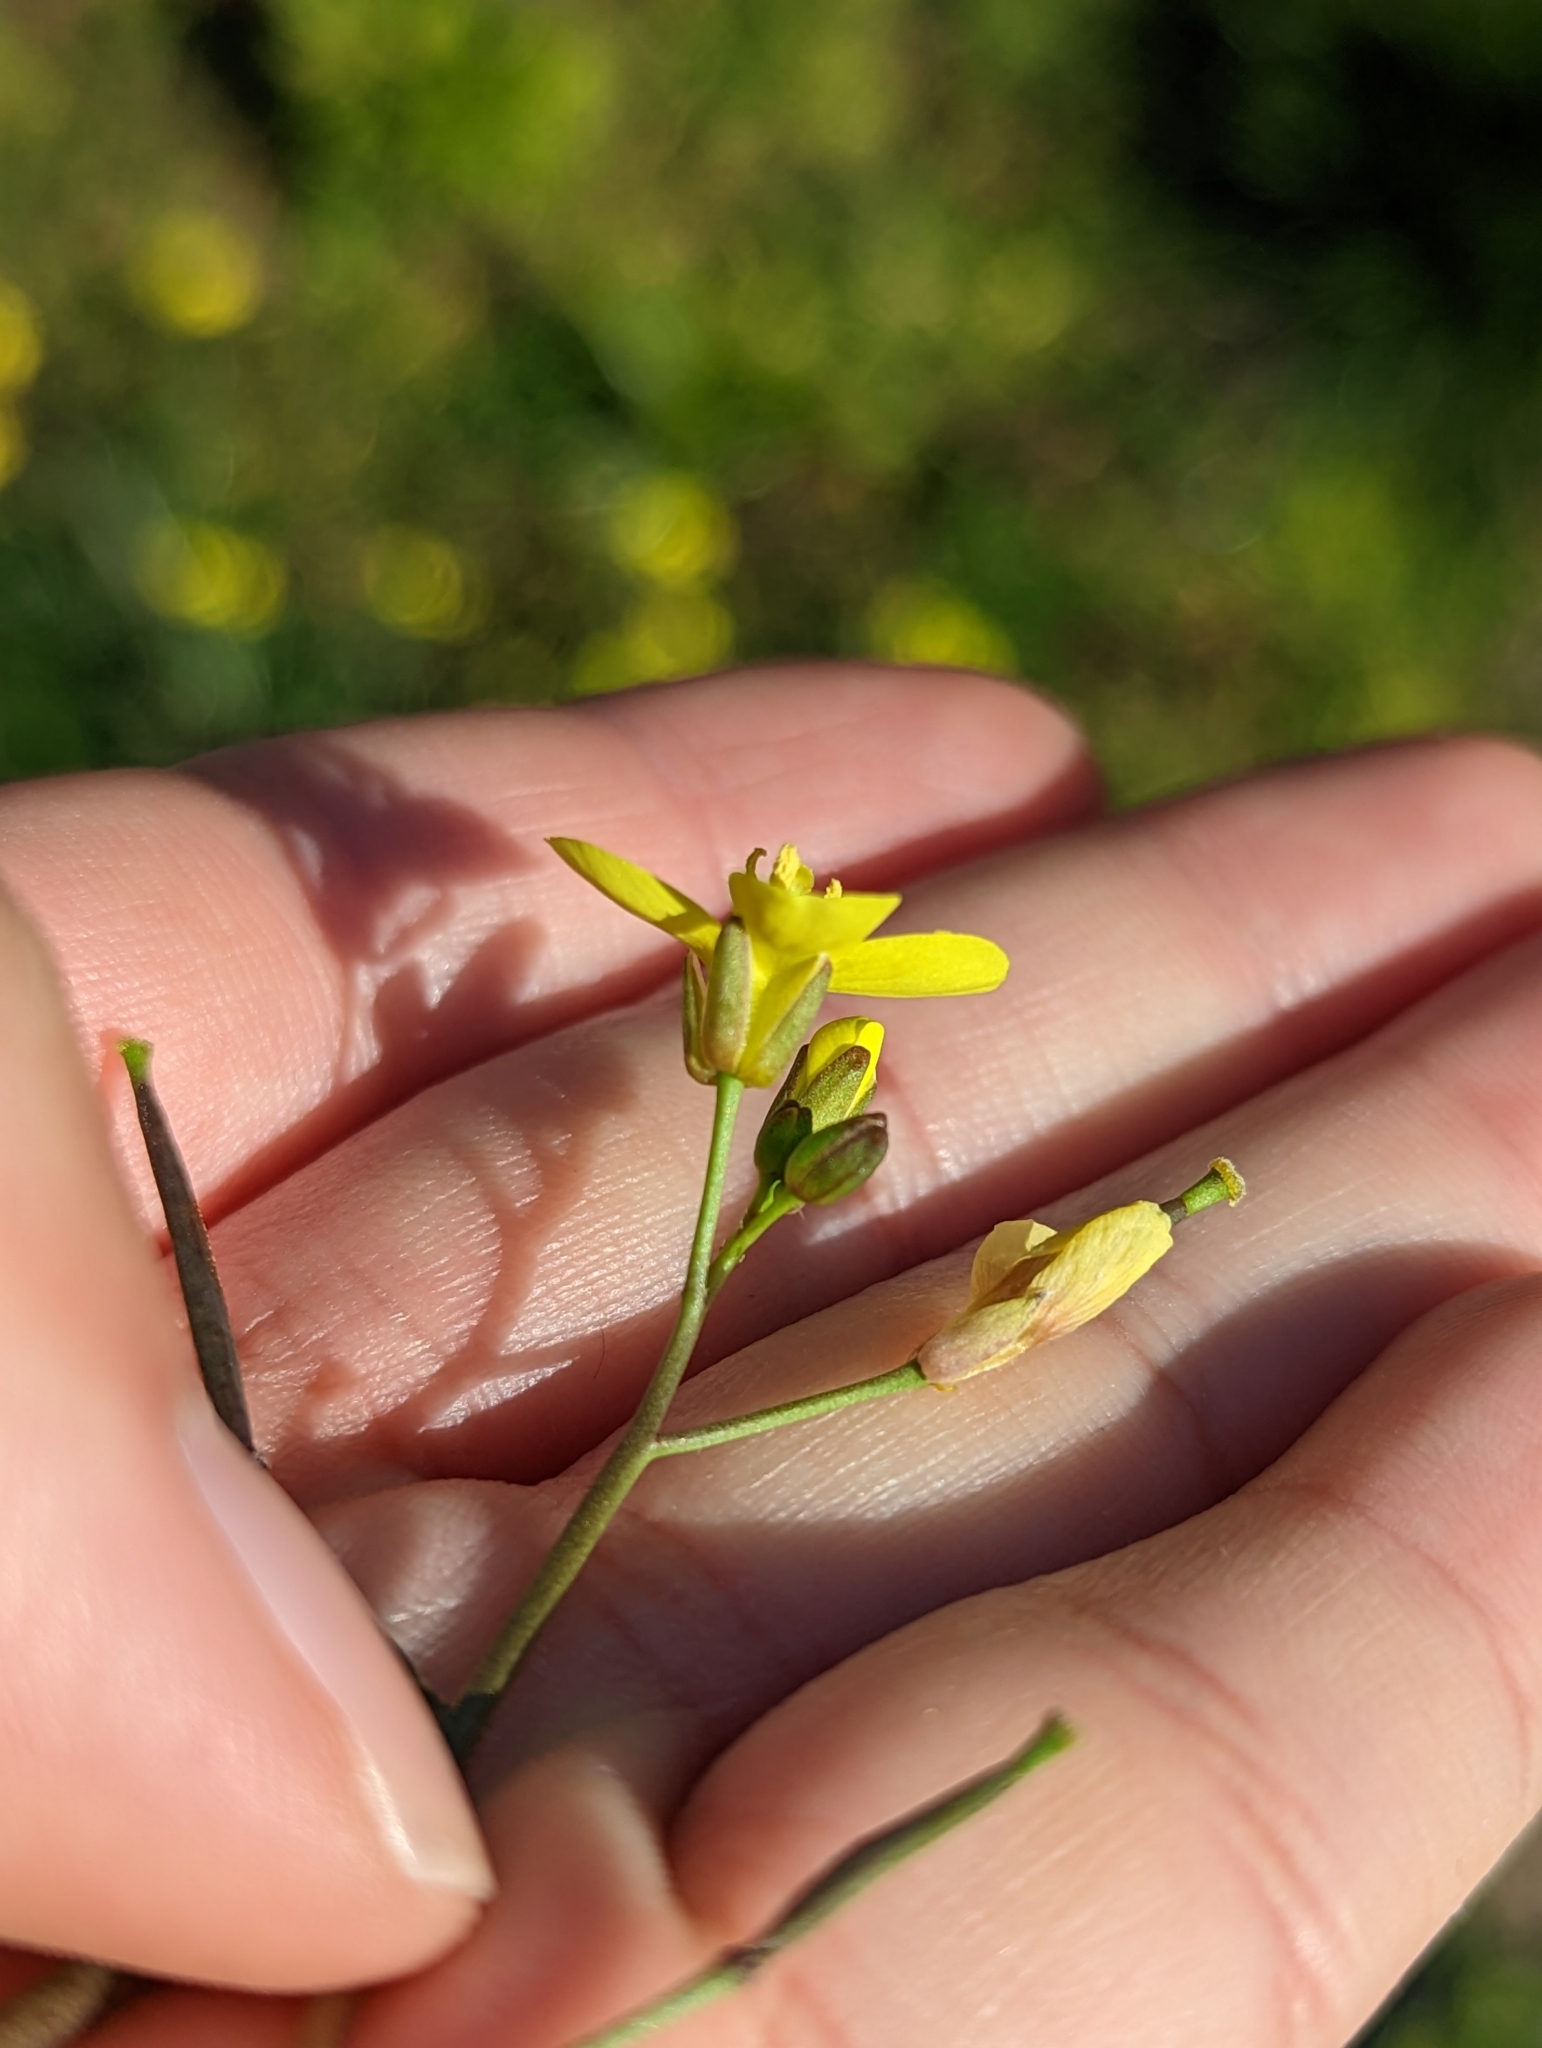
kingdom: Plantae
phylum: Tracheophyta
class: Magnoliopsida
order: Brassicales
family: Brassicaceae
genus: Diplotaxis
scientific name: Diplotaxis muralis
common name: Annual wall-rocket
